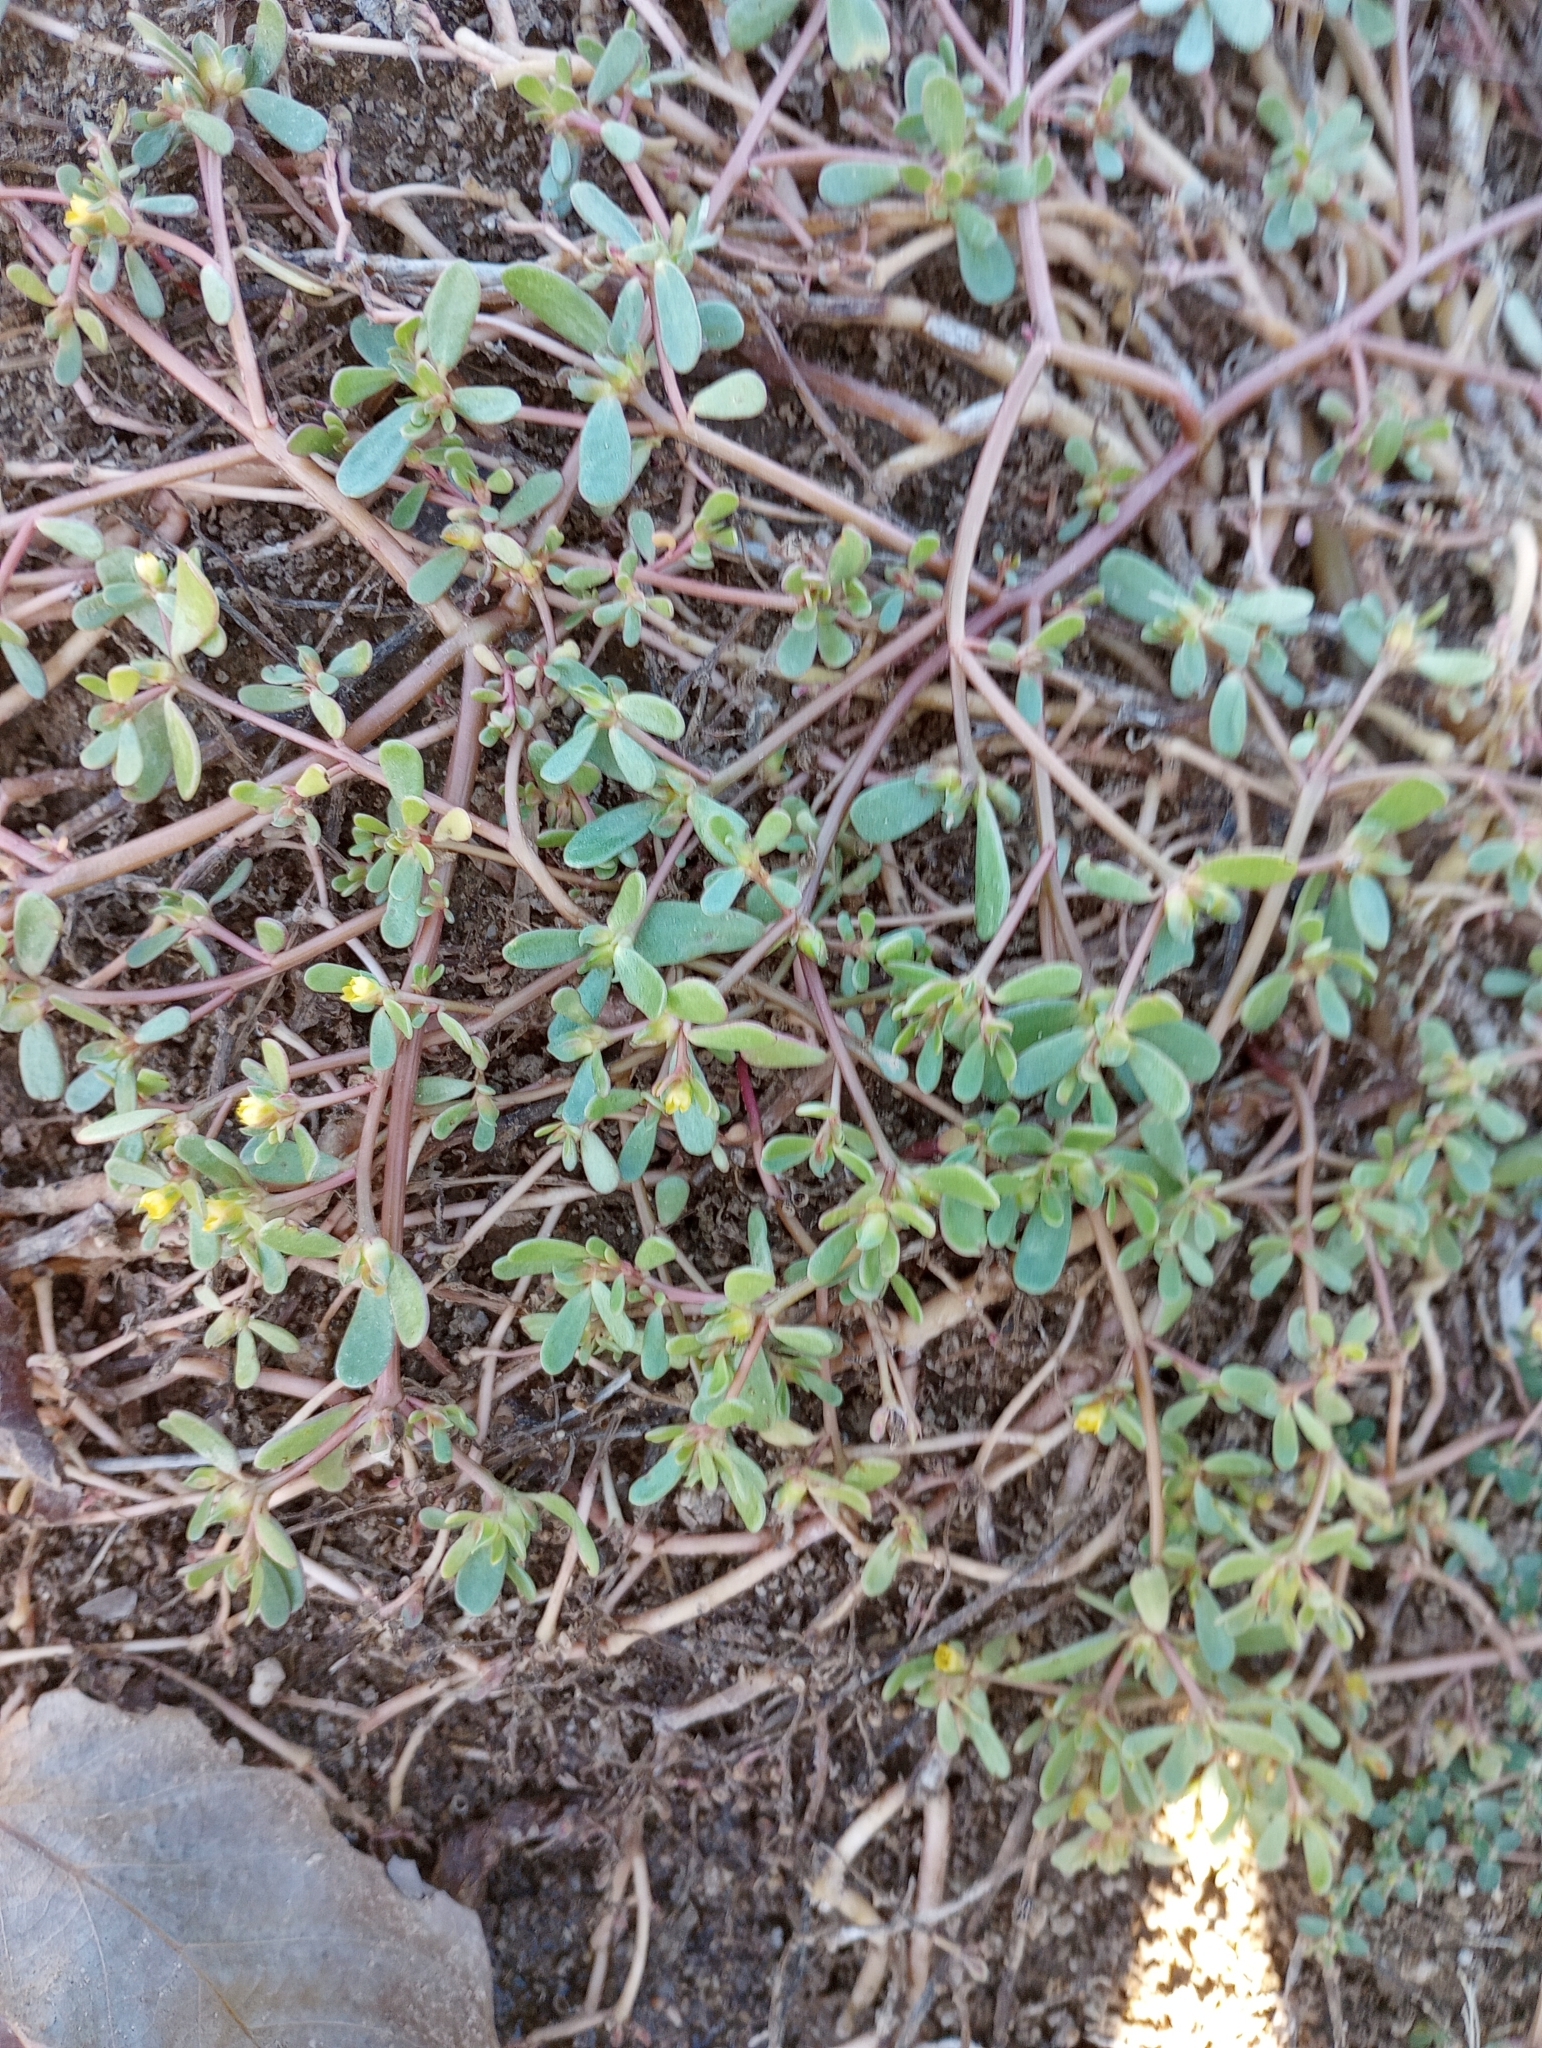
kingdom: Plantae
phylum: Tracheophyta
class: Magnoliopsida
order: Caryophyllales
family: Portulacaceae
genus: Portulaca
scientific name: Portulaca oleracea
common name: Common purslane
